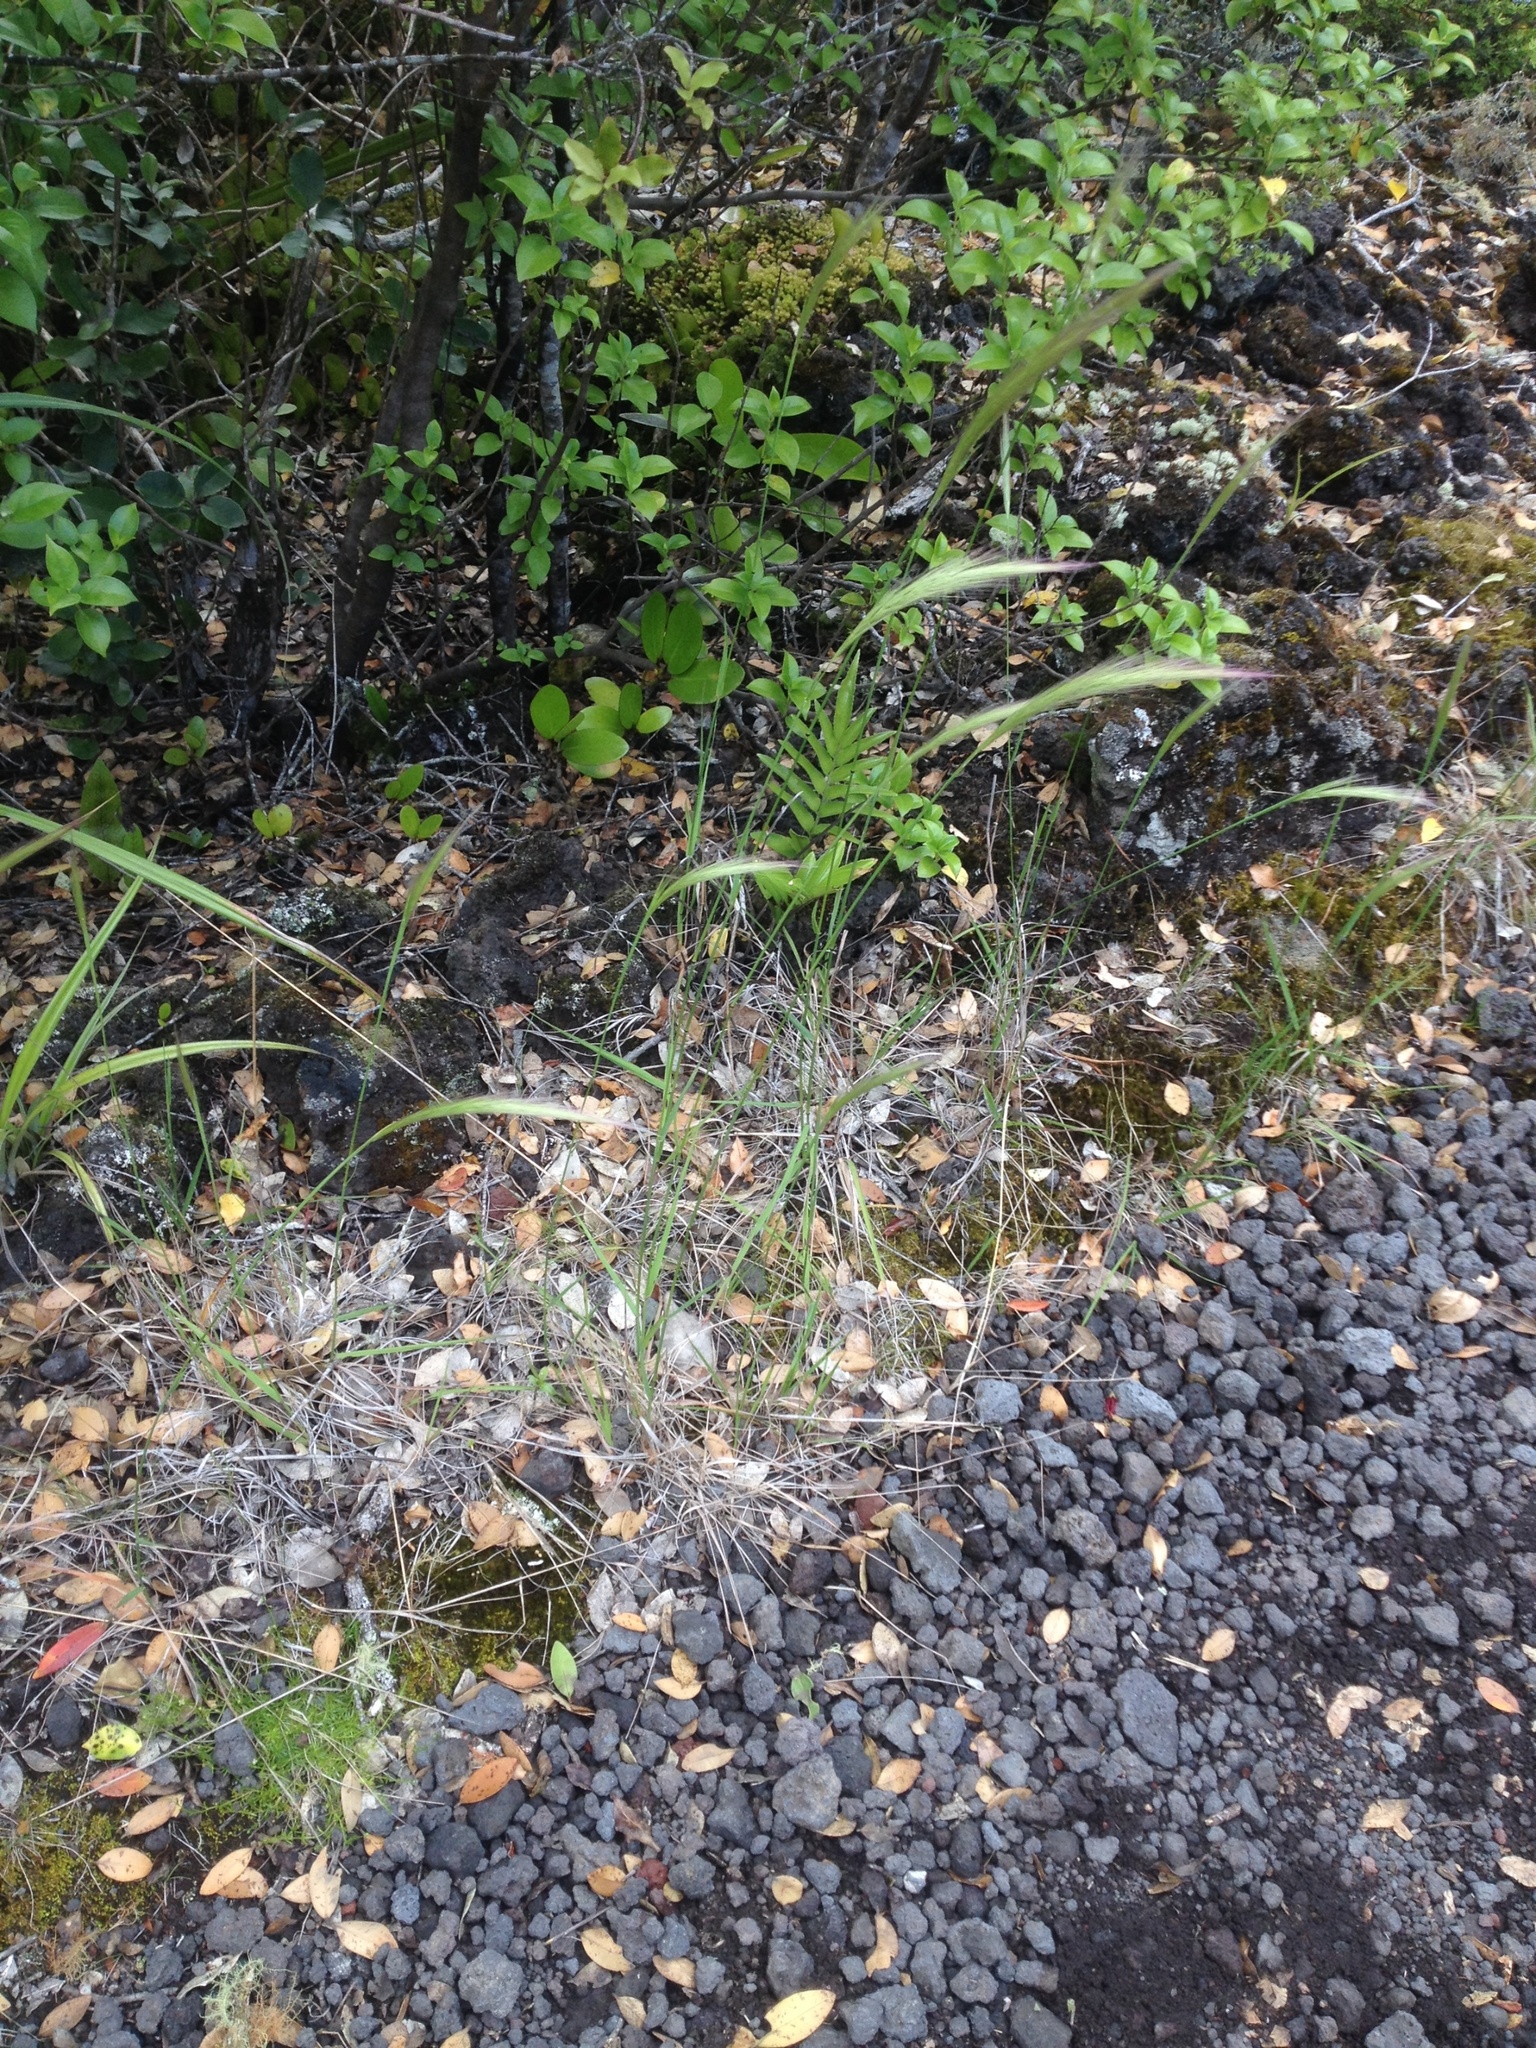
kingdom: Plantae
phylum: Tracheophyta
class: Liliopsida
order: Poales
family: Poaceae
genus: Dichelachne
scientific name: Dichelachne crinita
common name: Clovenfoot plumegrass
